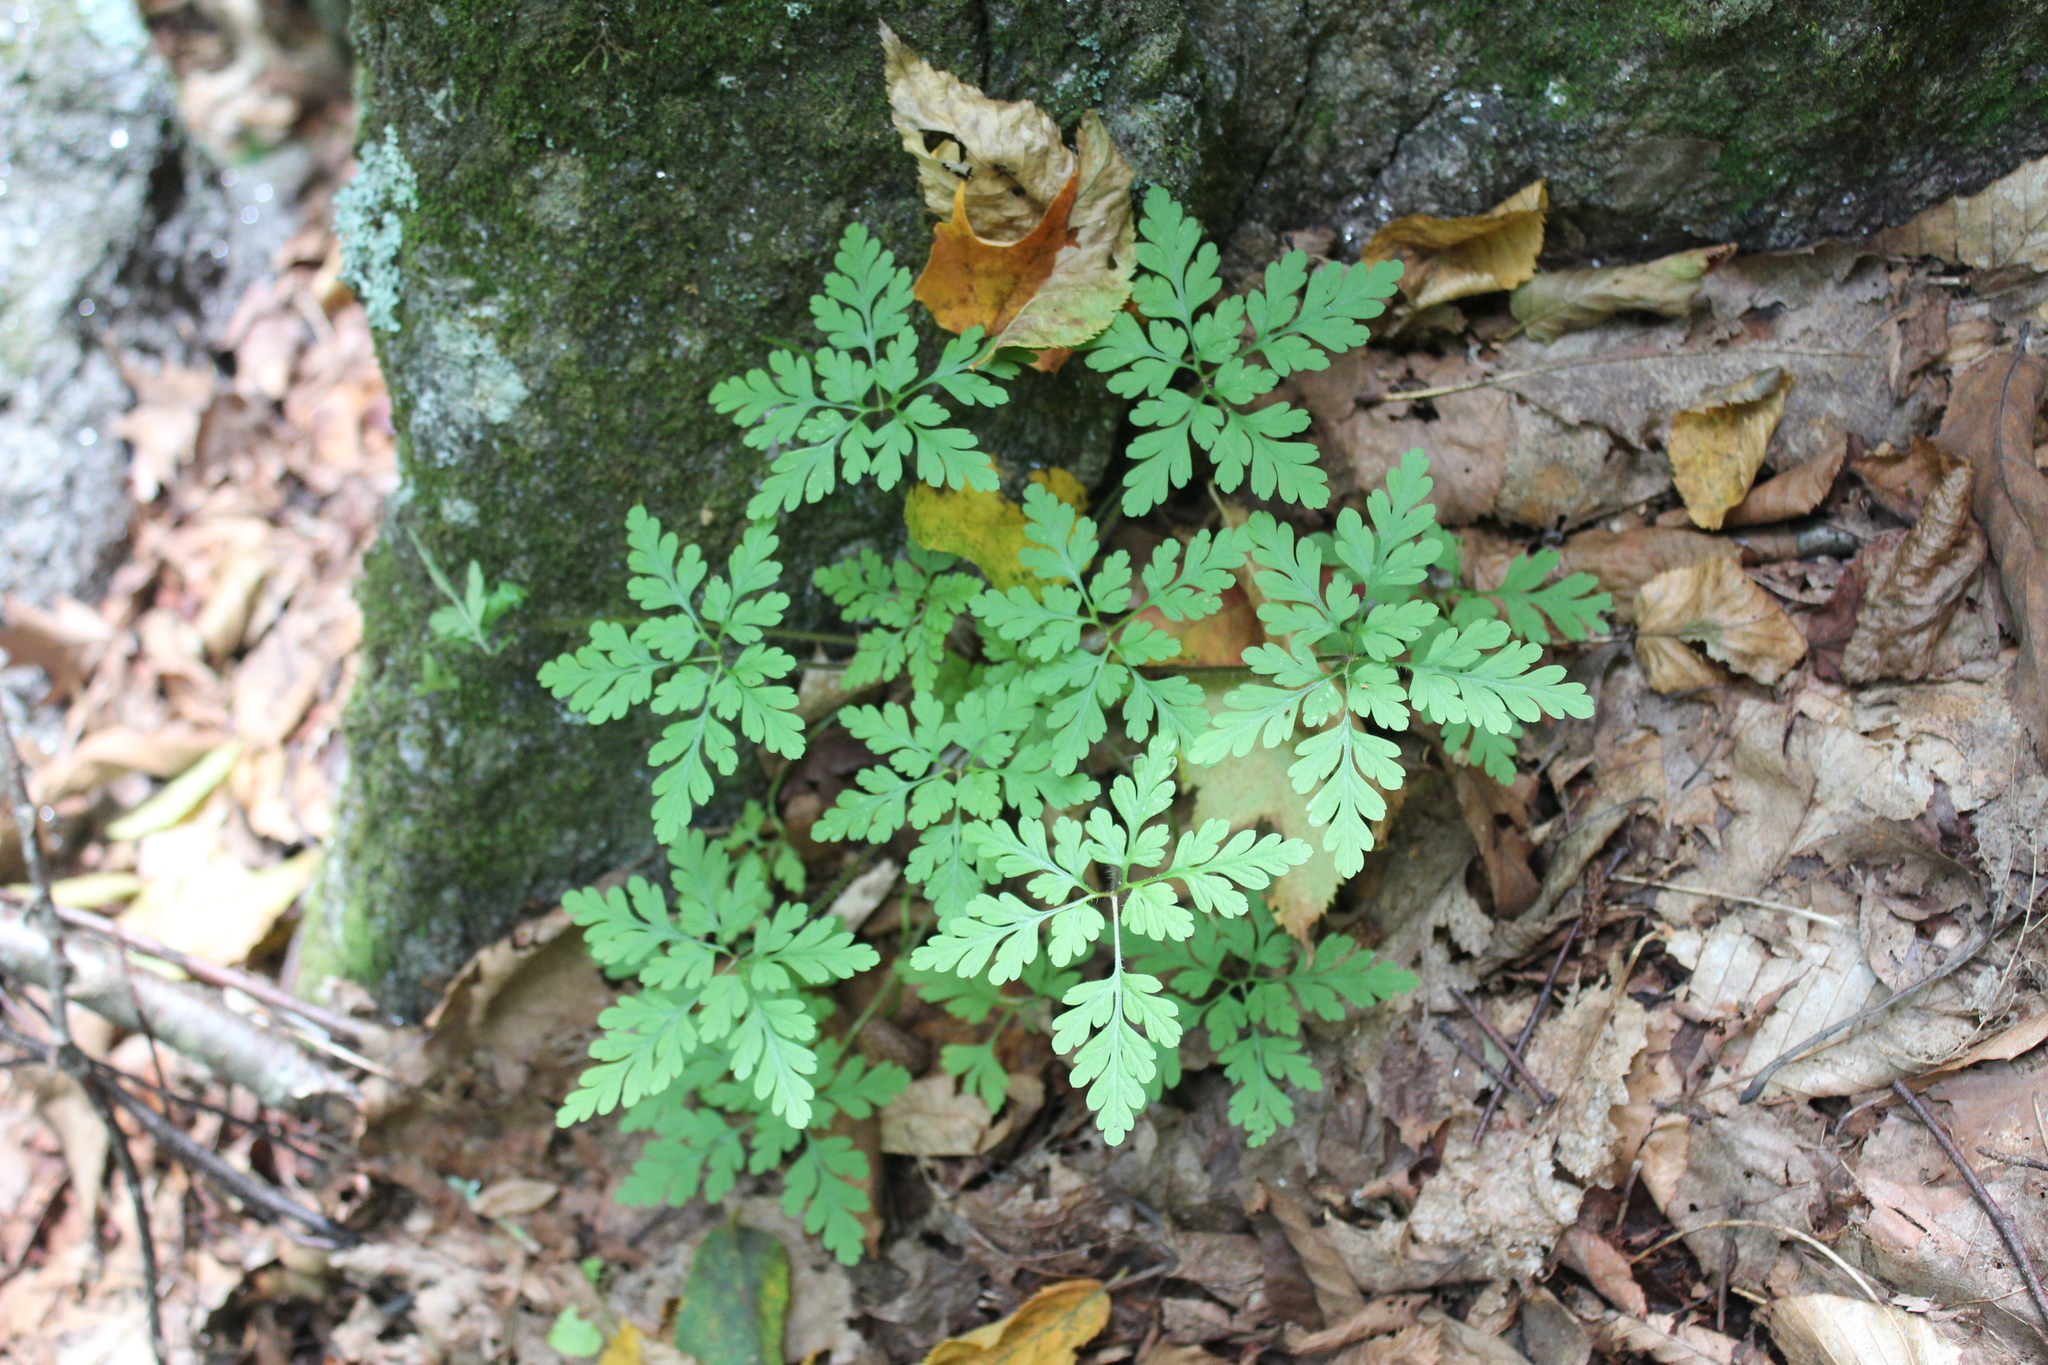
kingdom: Plantae
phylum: Tracheophyta
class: Magnoliopsida
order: Geraniales
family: Geraniaceae
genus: Geranium
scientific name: Geranium robertianum
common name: Herb-robert
